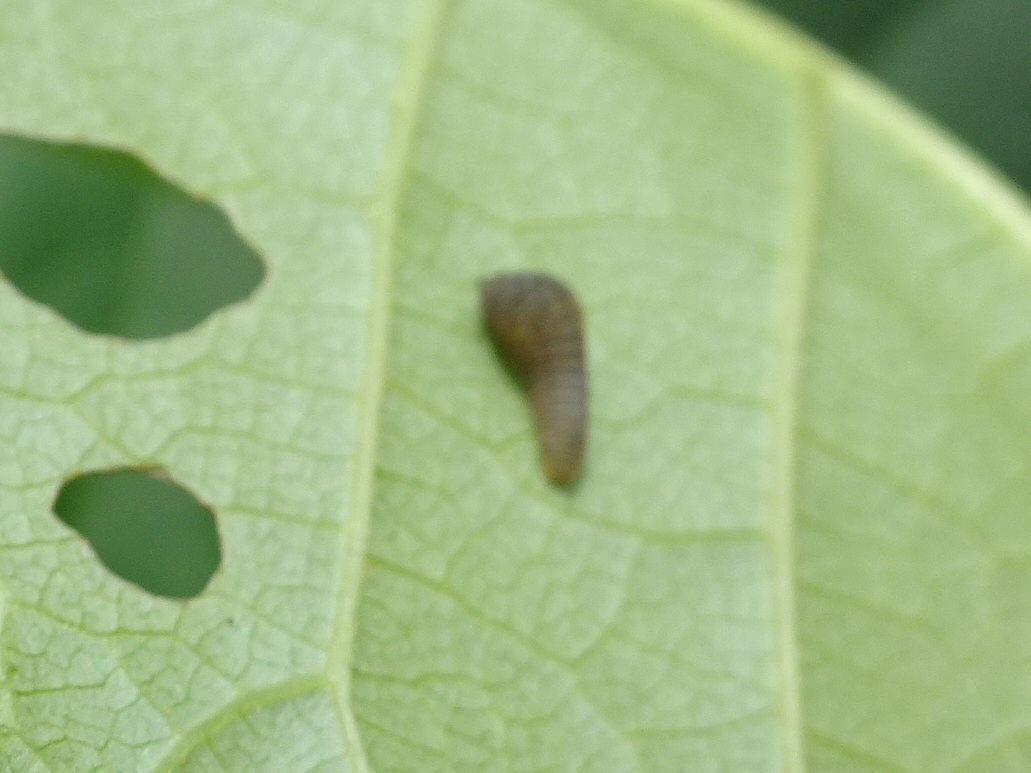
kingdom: Animalia
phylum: Arthropoda
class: Insecta
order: Lepidoptera
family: Papilionidae
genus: Protographium
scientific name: Protographium marcellus
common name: Zebra swallowtail
